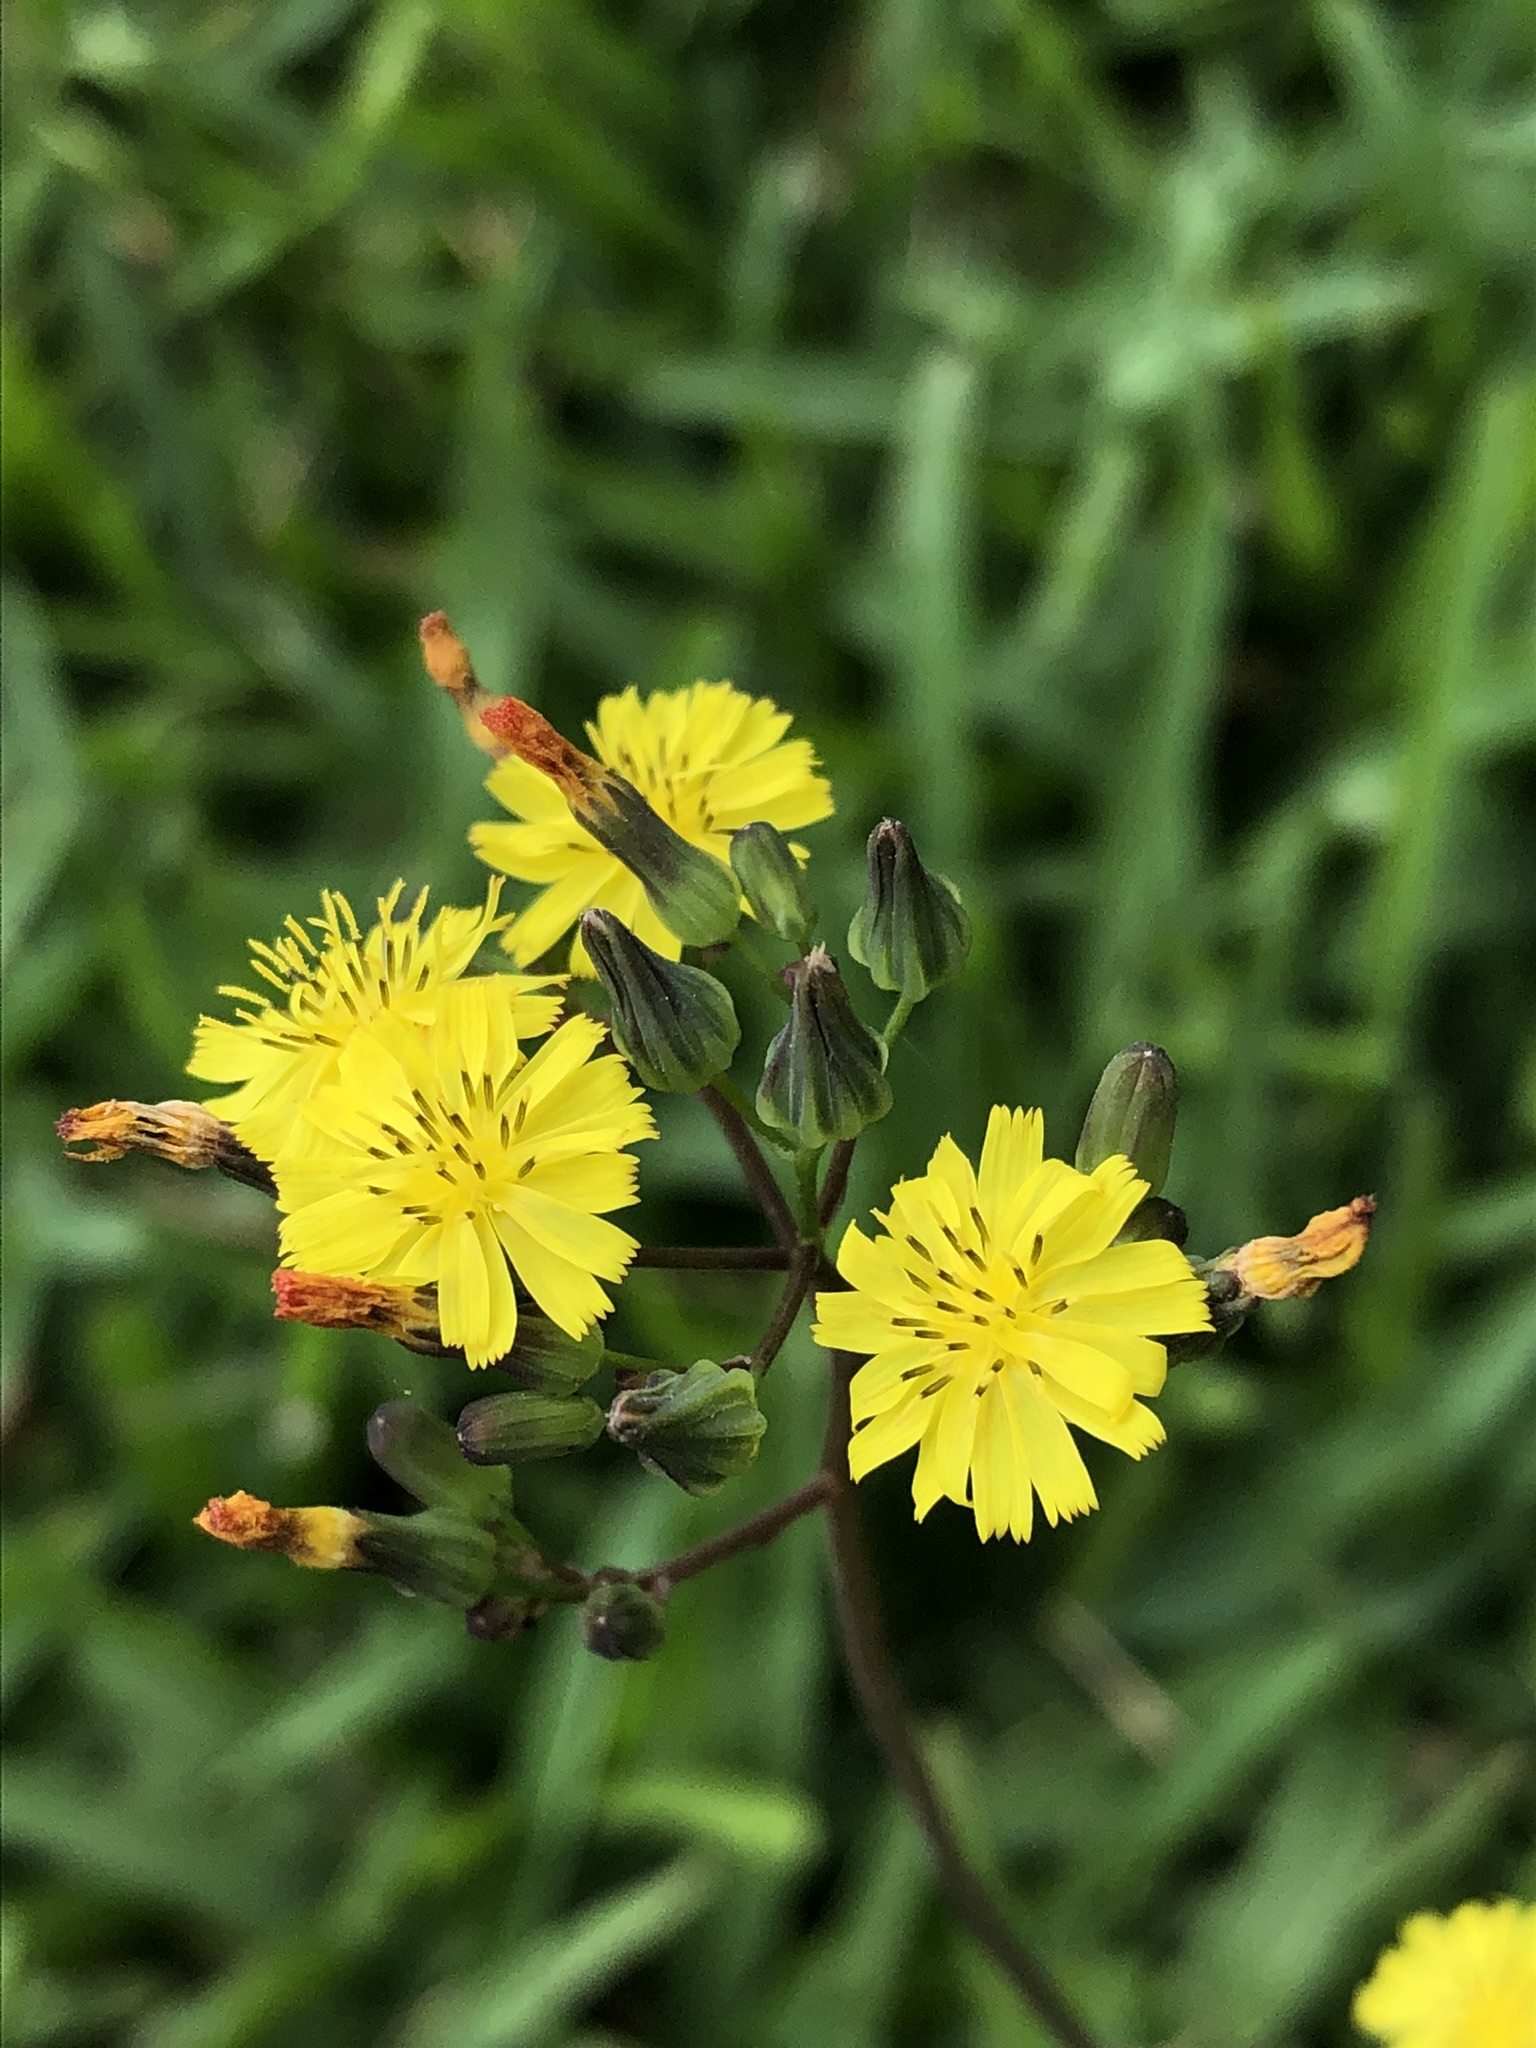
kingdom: Plantae
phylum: Tracheophyta
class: Magnoliopsida
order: Asterales
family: Asteraceae
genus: Youngia
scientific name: Youngia japonica
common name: Oriental false hawksbeard
